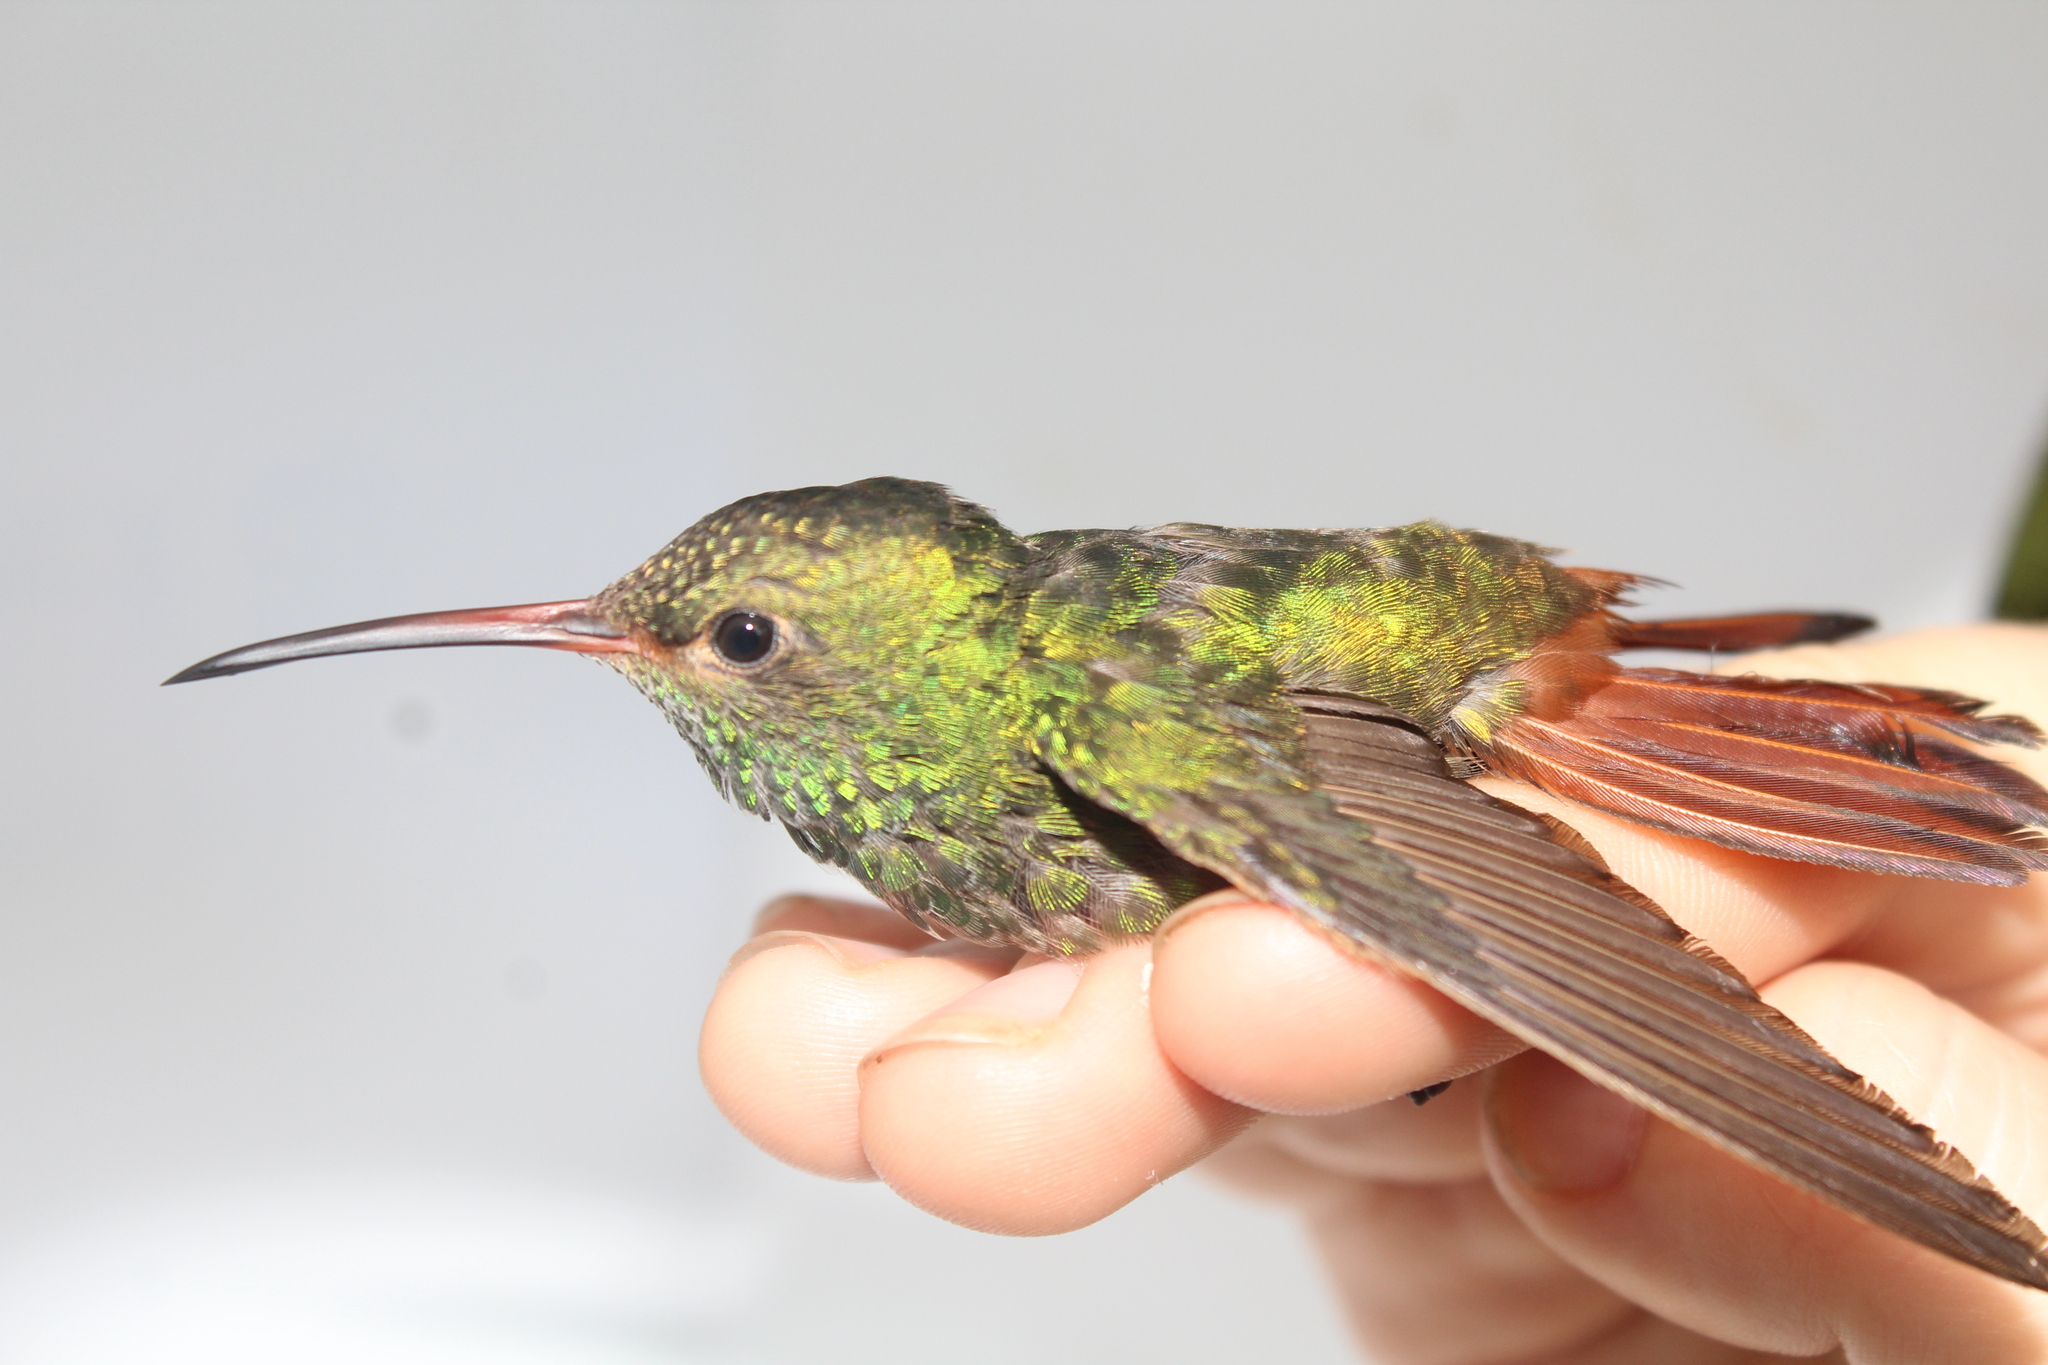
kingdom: Animalia
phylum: Chordata
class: Aves
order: Apodiformes
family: Trochilidae
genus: Amazilia
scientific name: Amazilia tzacatl
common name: Rufous-tailed hummingbird
